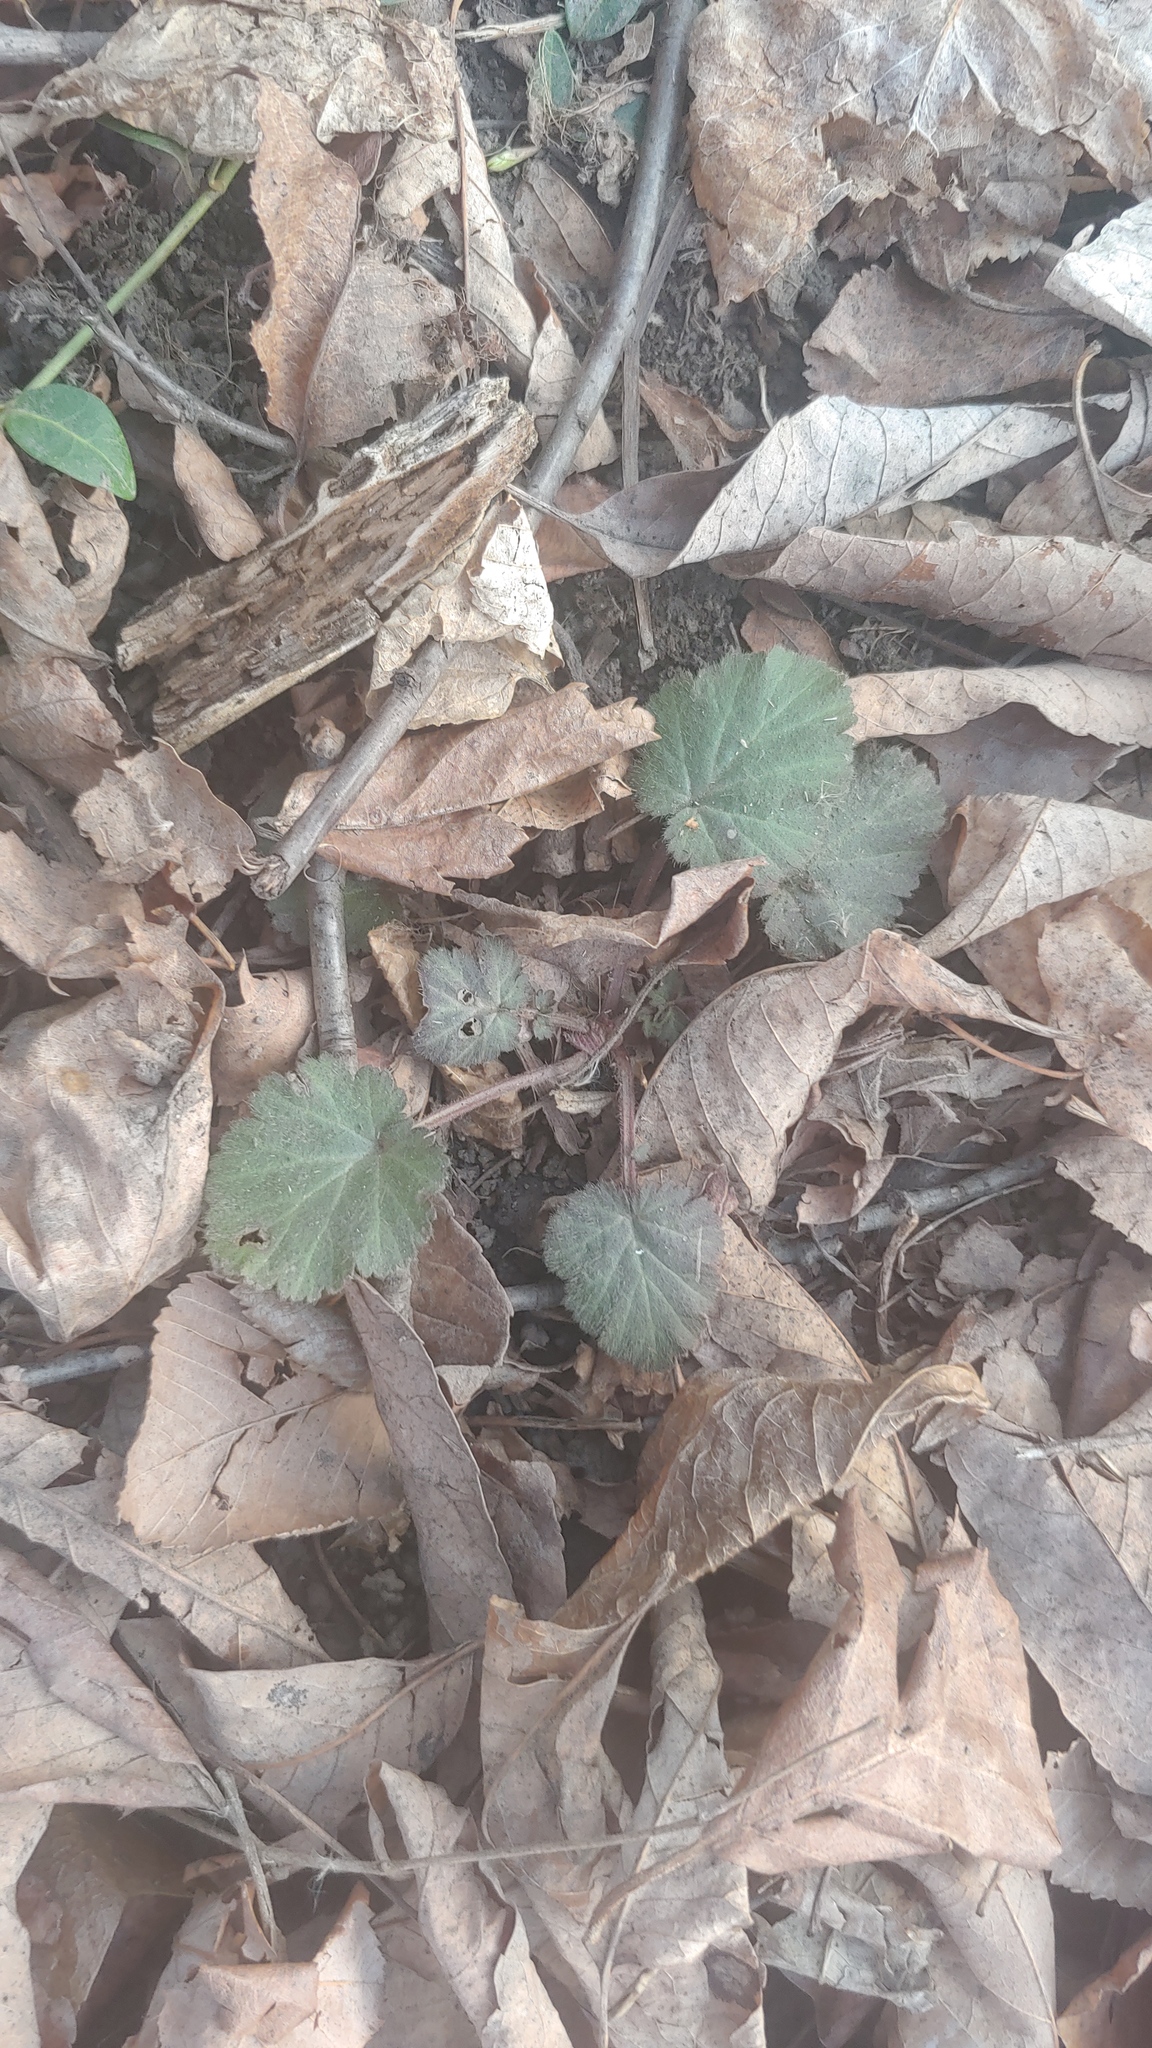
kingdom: Plantae
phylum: Tracheophyta
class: Magnoliopsida
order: Rosales
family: Rosaceae
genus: Geum
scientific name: Geum canadense
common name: White avens
